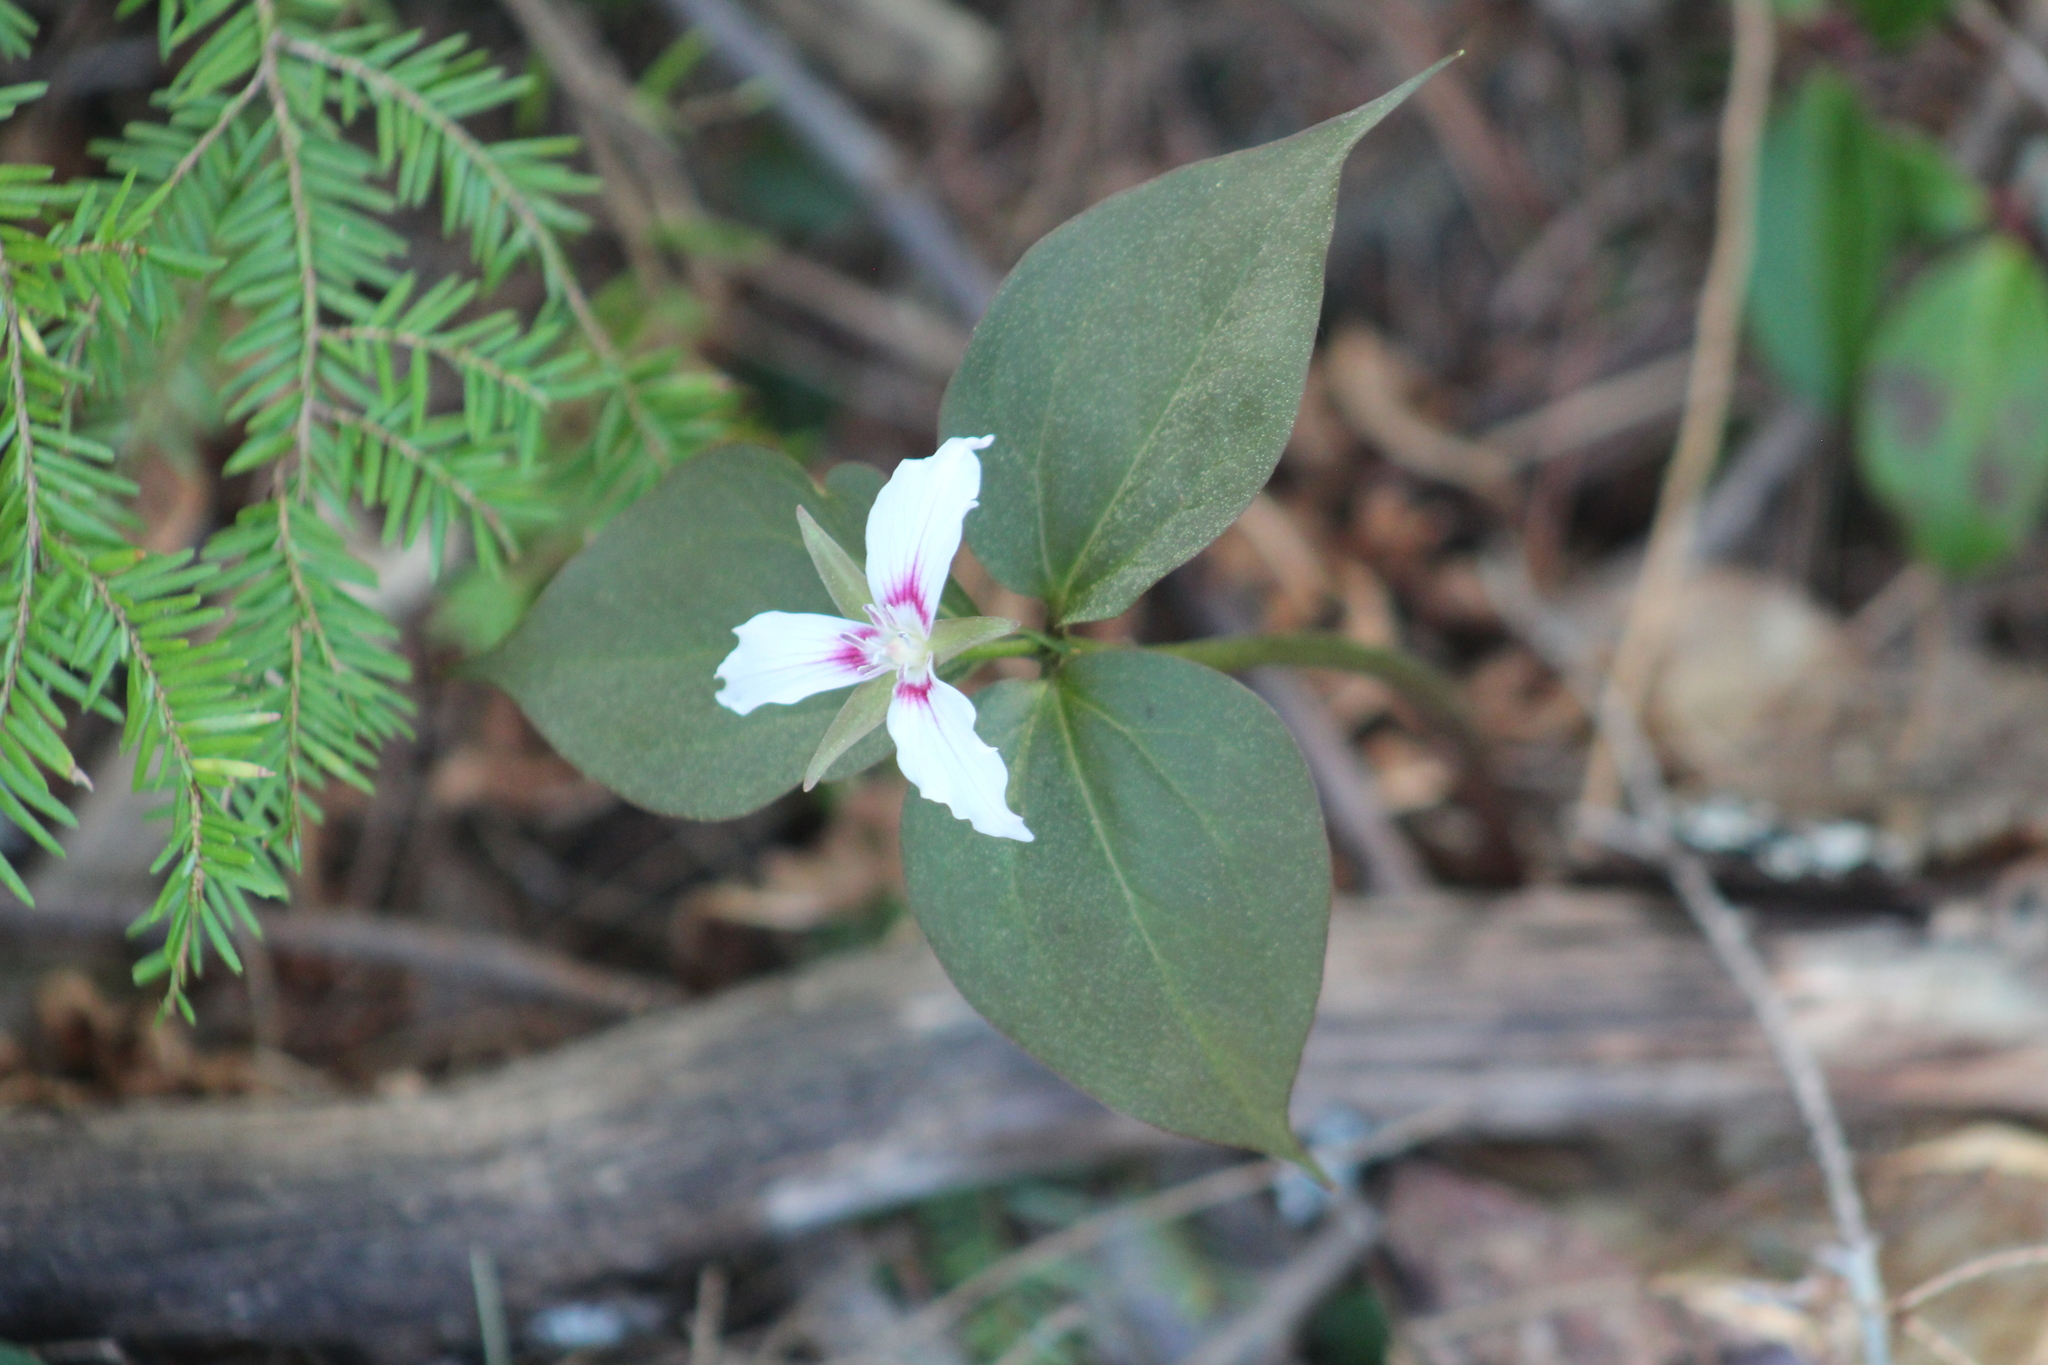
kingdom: Plantae
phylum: Tracheophyta
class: Liliopsida
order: Liliales
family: Melanthiaceae
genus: Trillium
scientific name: Trillium undulatum
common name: Paint trillium
